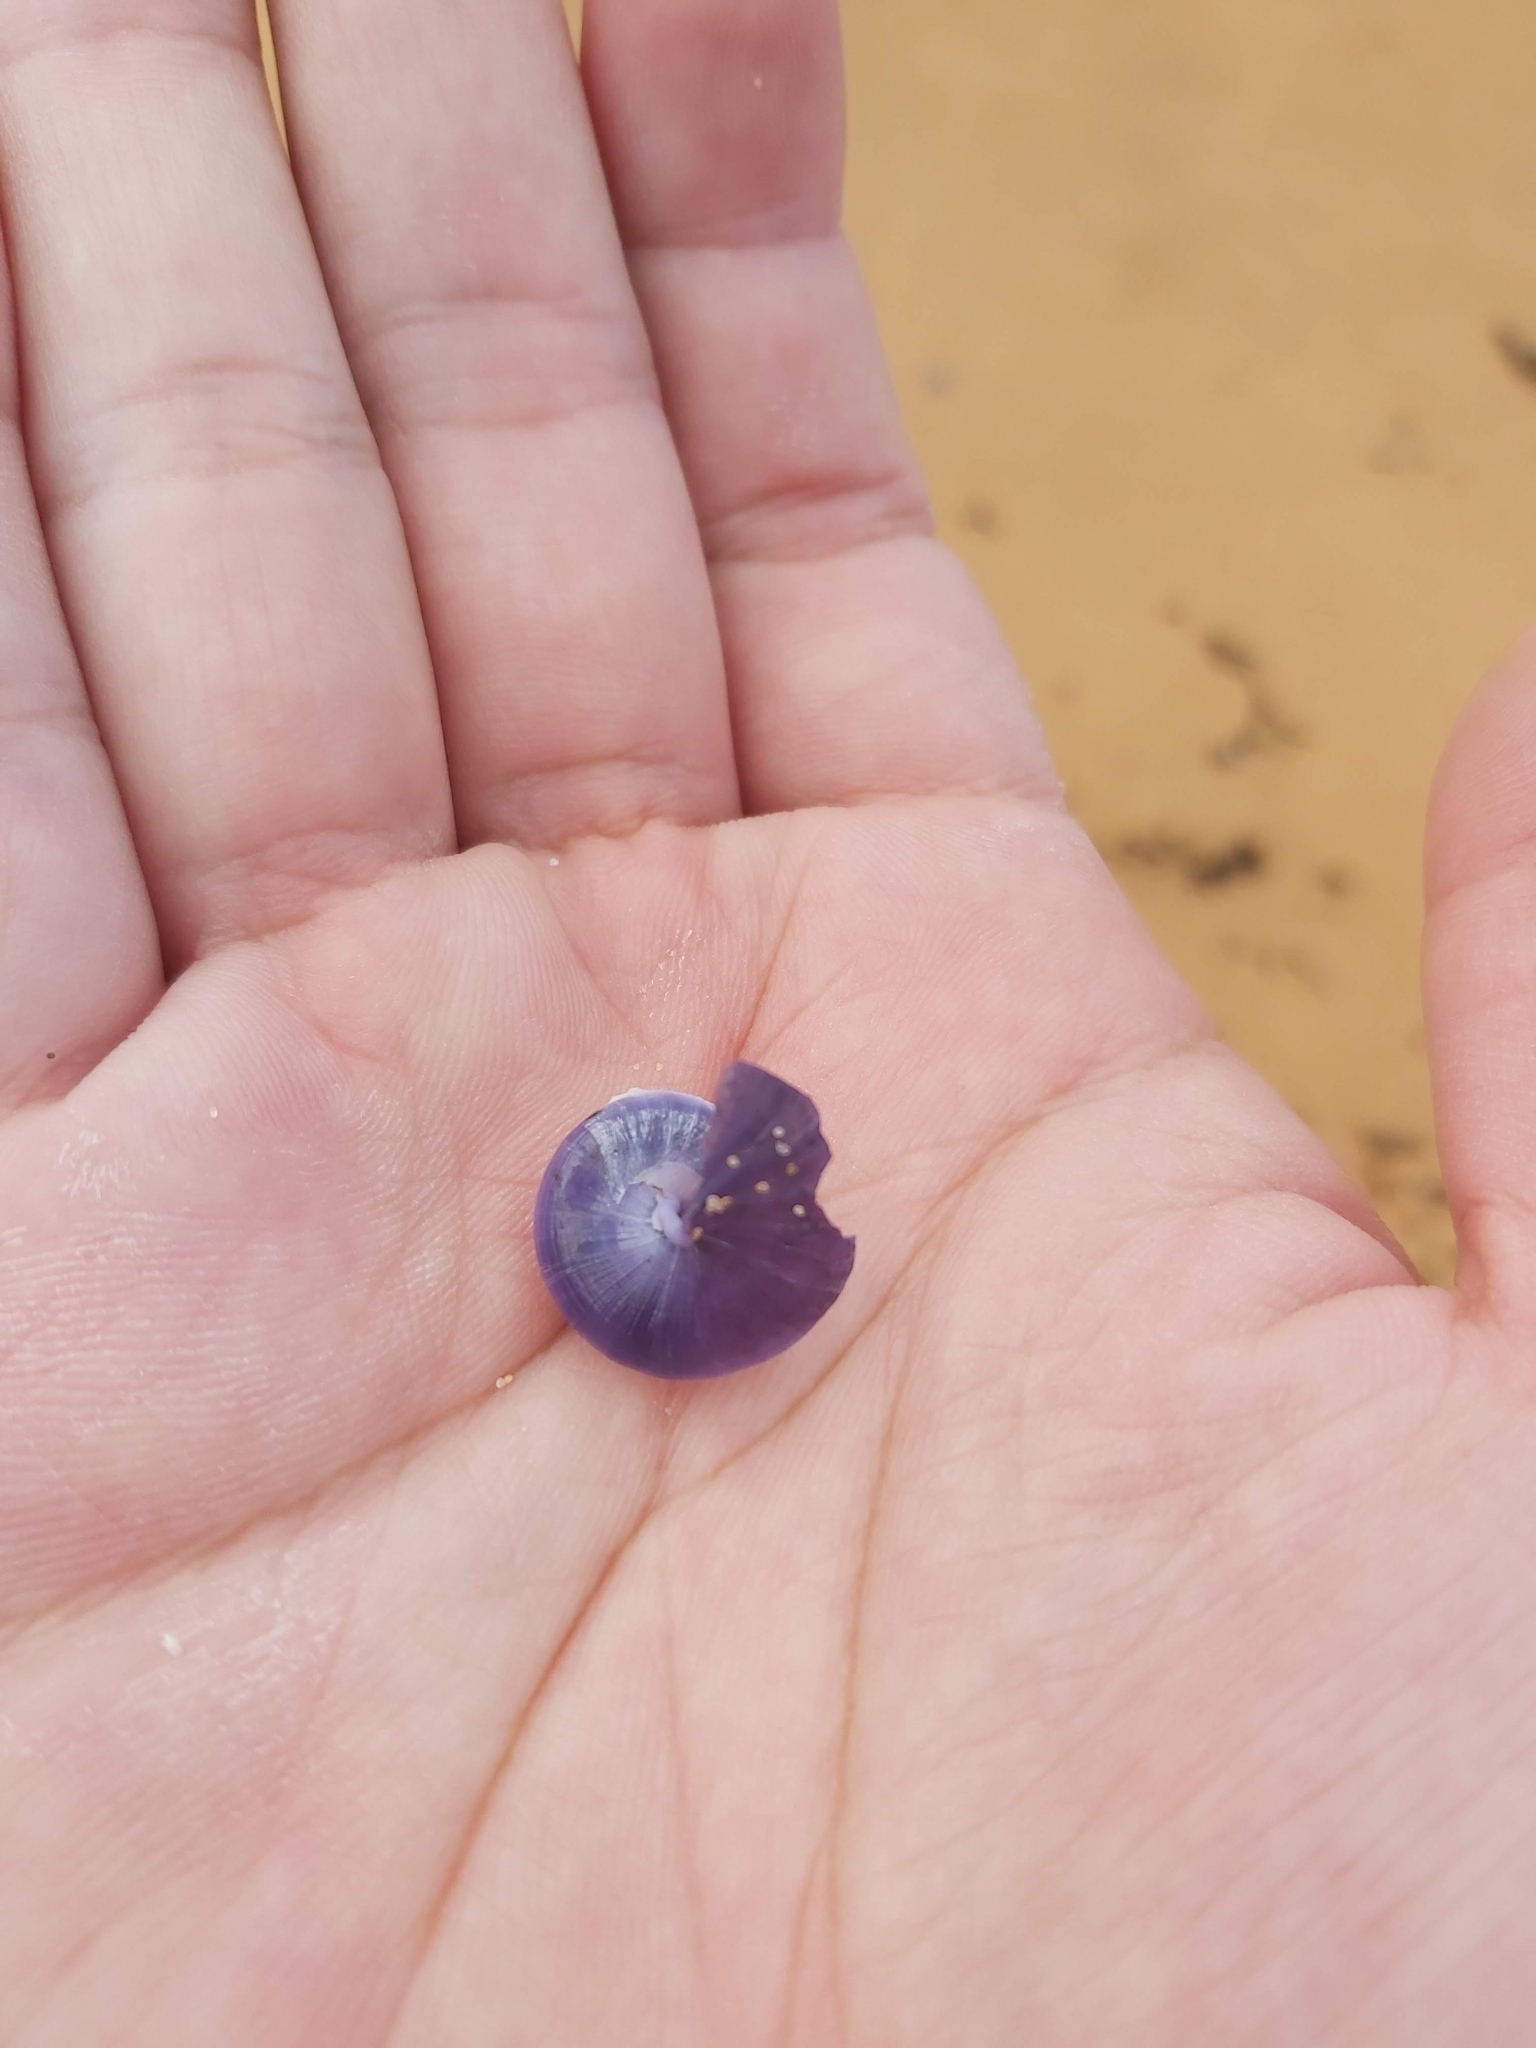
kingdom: Animalia
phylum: Mollusca
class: Gastropoda
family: Epitoniidae
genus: Janthina
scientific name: Janthina janthina
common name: Common janthina
